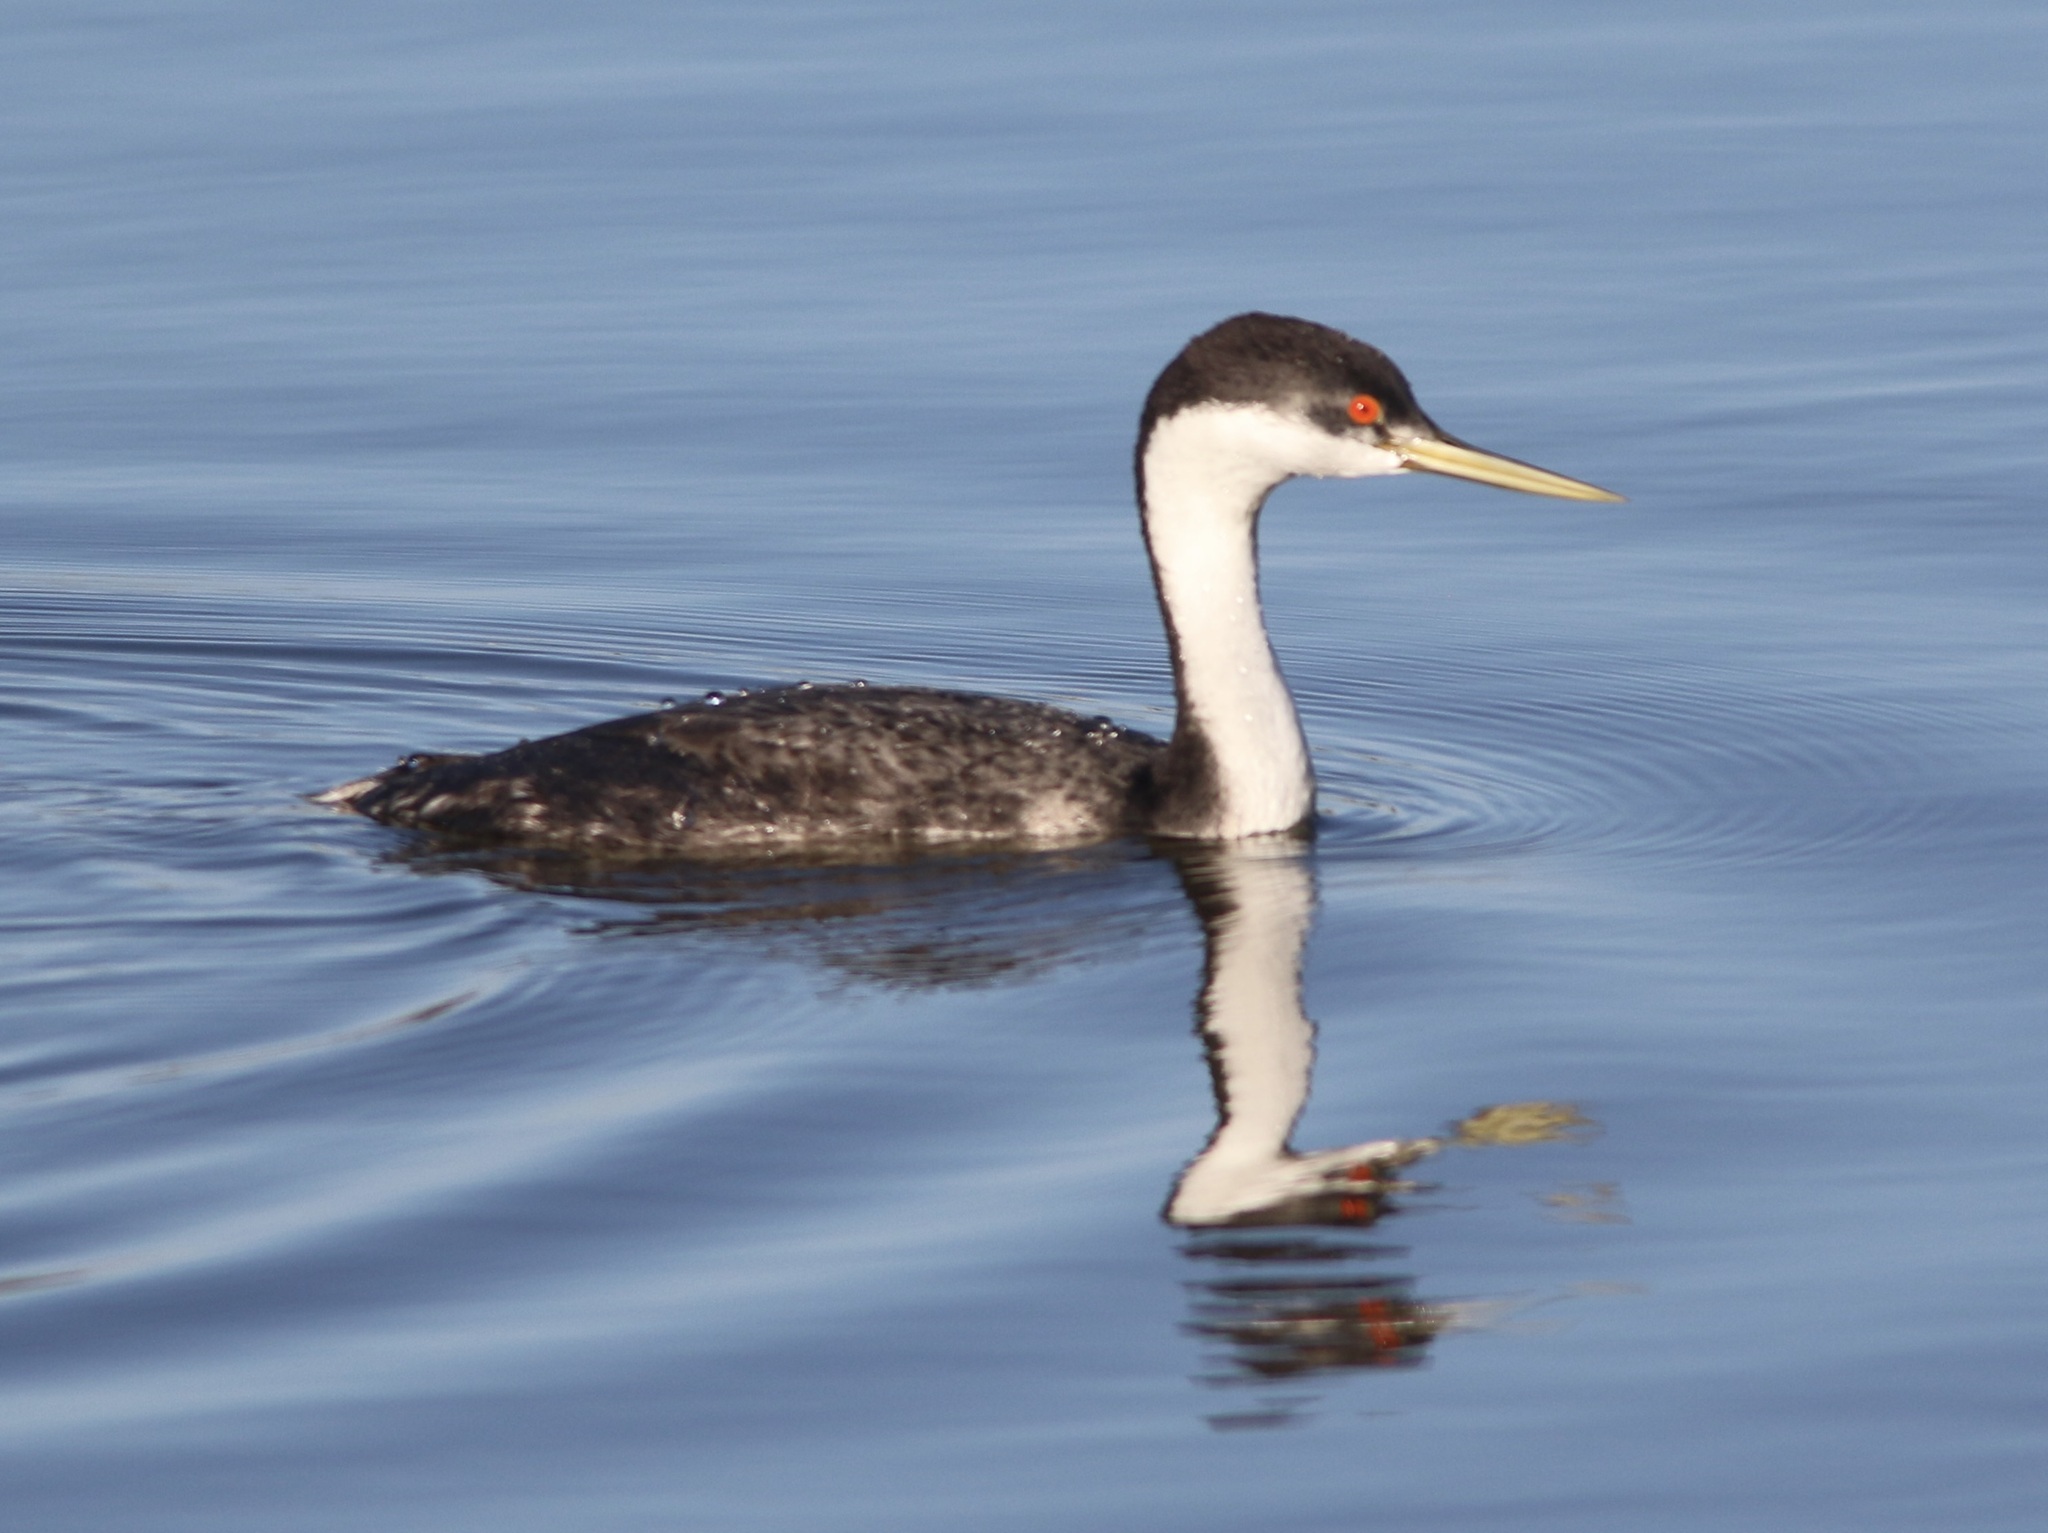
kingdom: Animalia
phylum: Chordata
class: Aves
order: Podicipediformes
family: Podicipedidae
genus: Aechmophorus
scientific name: Aechmophorus occidentalis
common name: Western grebe
